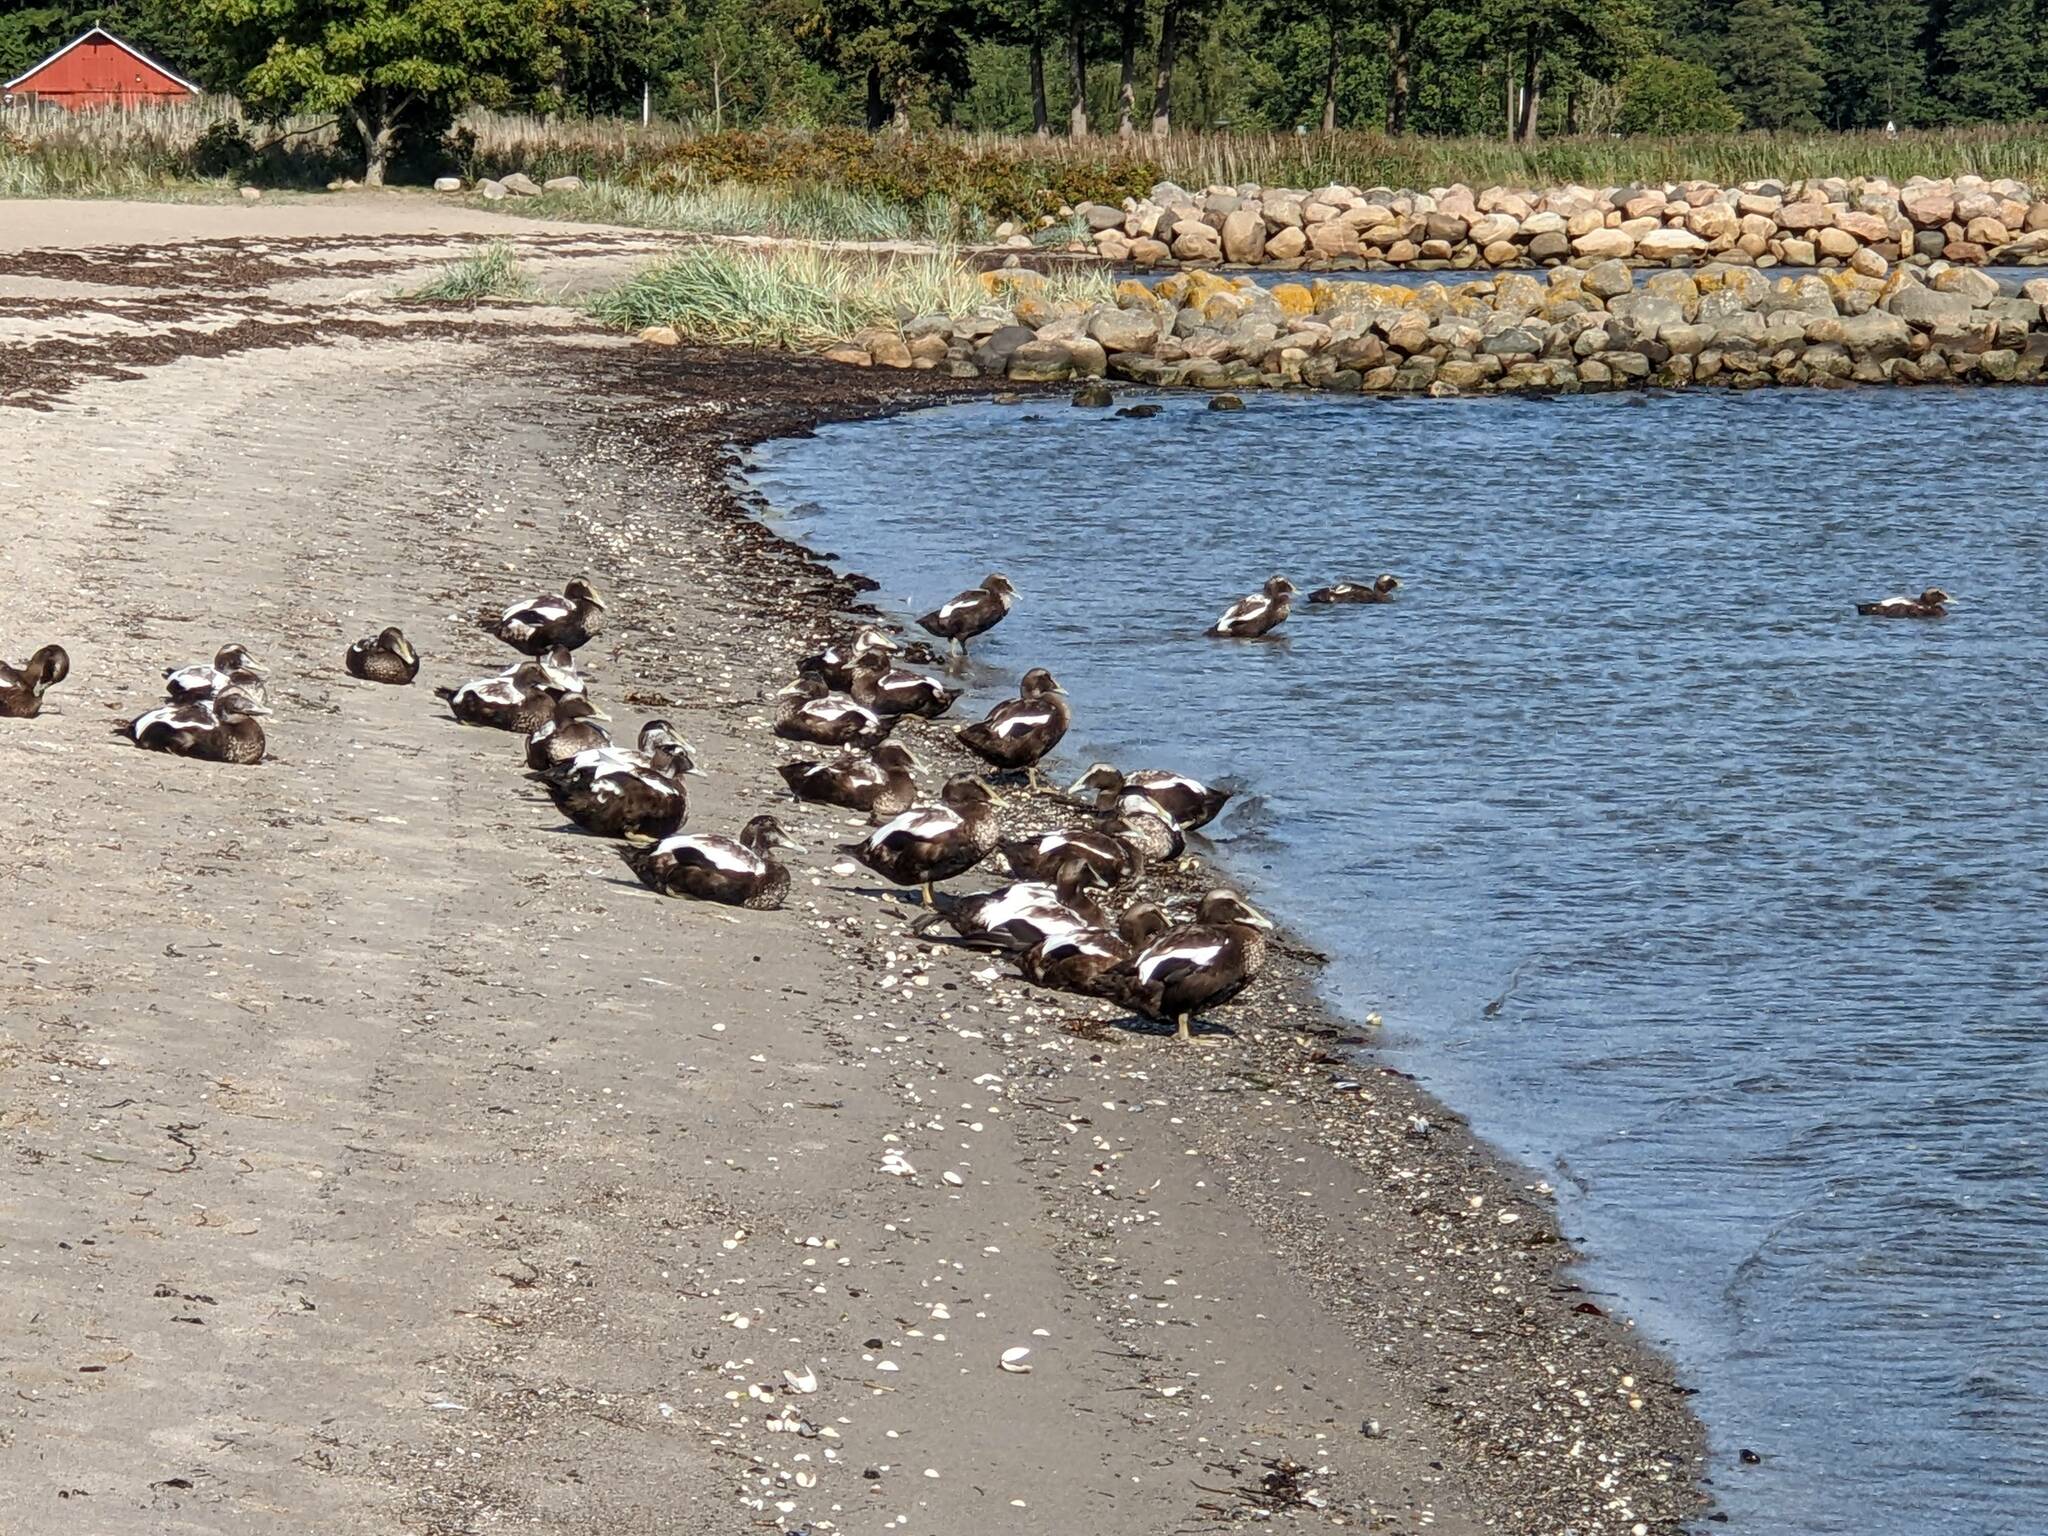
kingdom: Animalia
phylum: Chordata
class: Aves
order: Anseriformes
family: Anatidae
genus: Somateria
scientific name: Somateria mollissima
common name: Common eider
